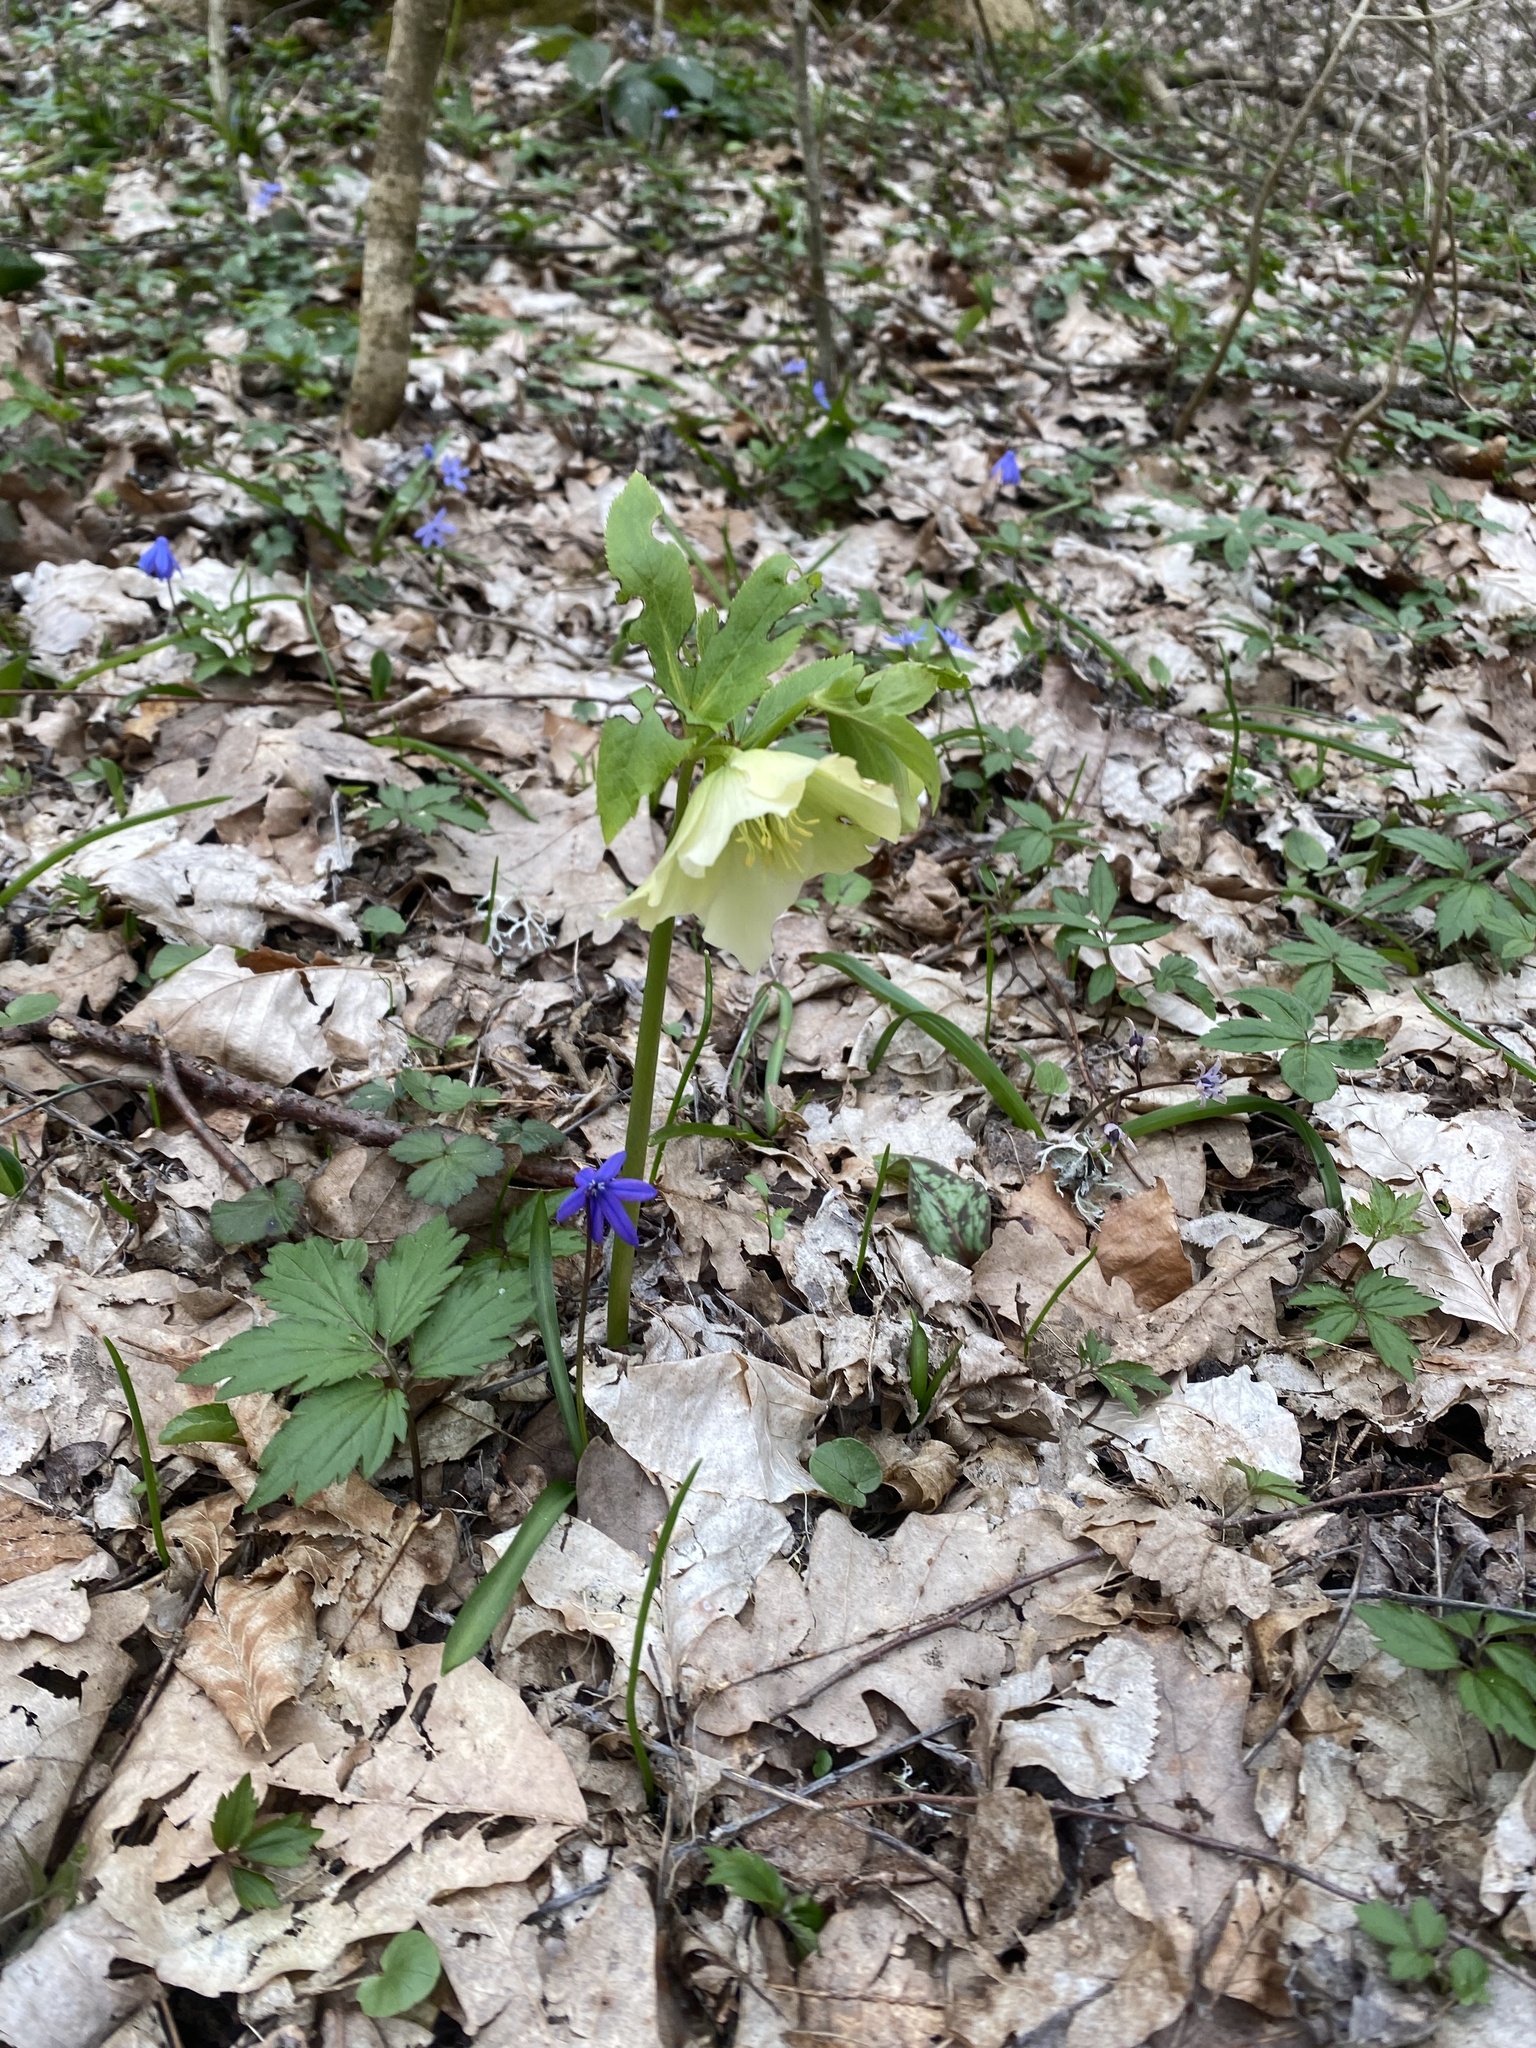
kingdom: Plantae
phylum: Tracheophyta
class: Magnoliopsida
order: Ranunculales
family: Ranunculaceae
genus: Helleborus
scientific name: Helleborus orientalis
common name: Lenten-rose
